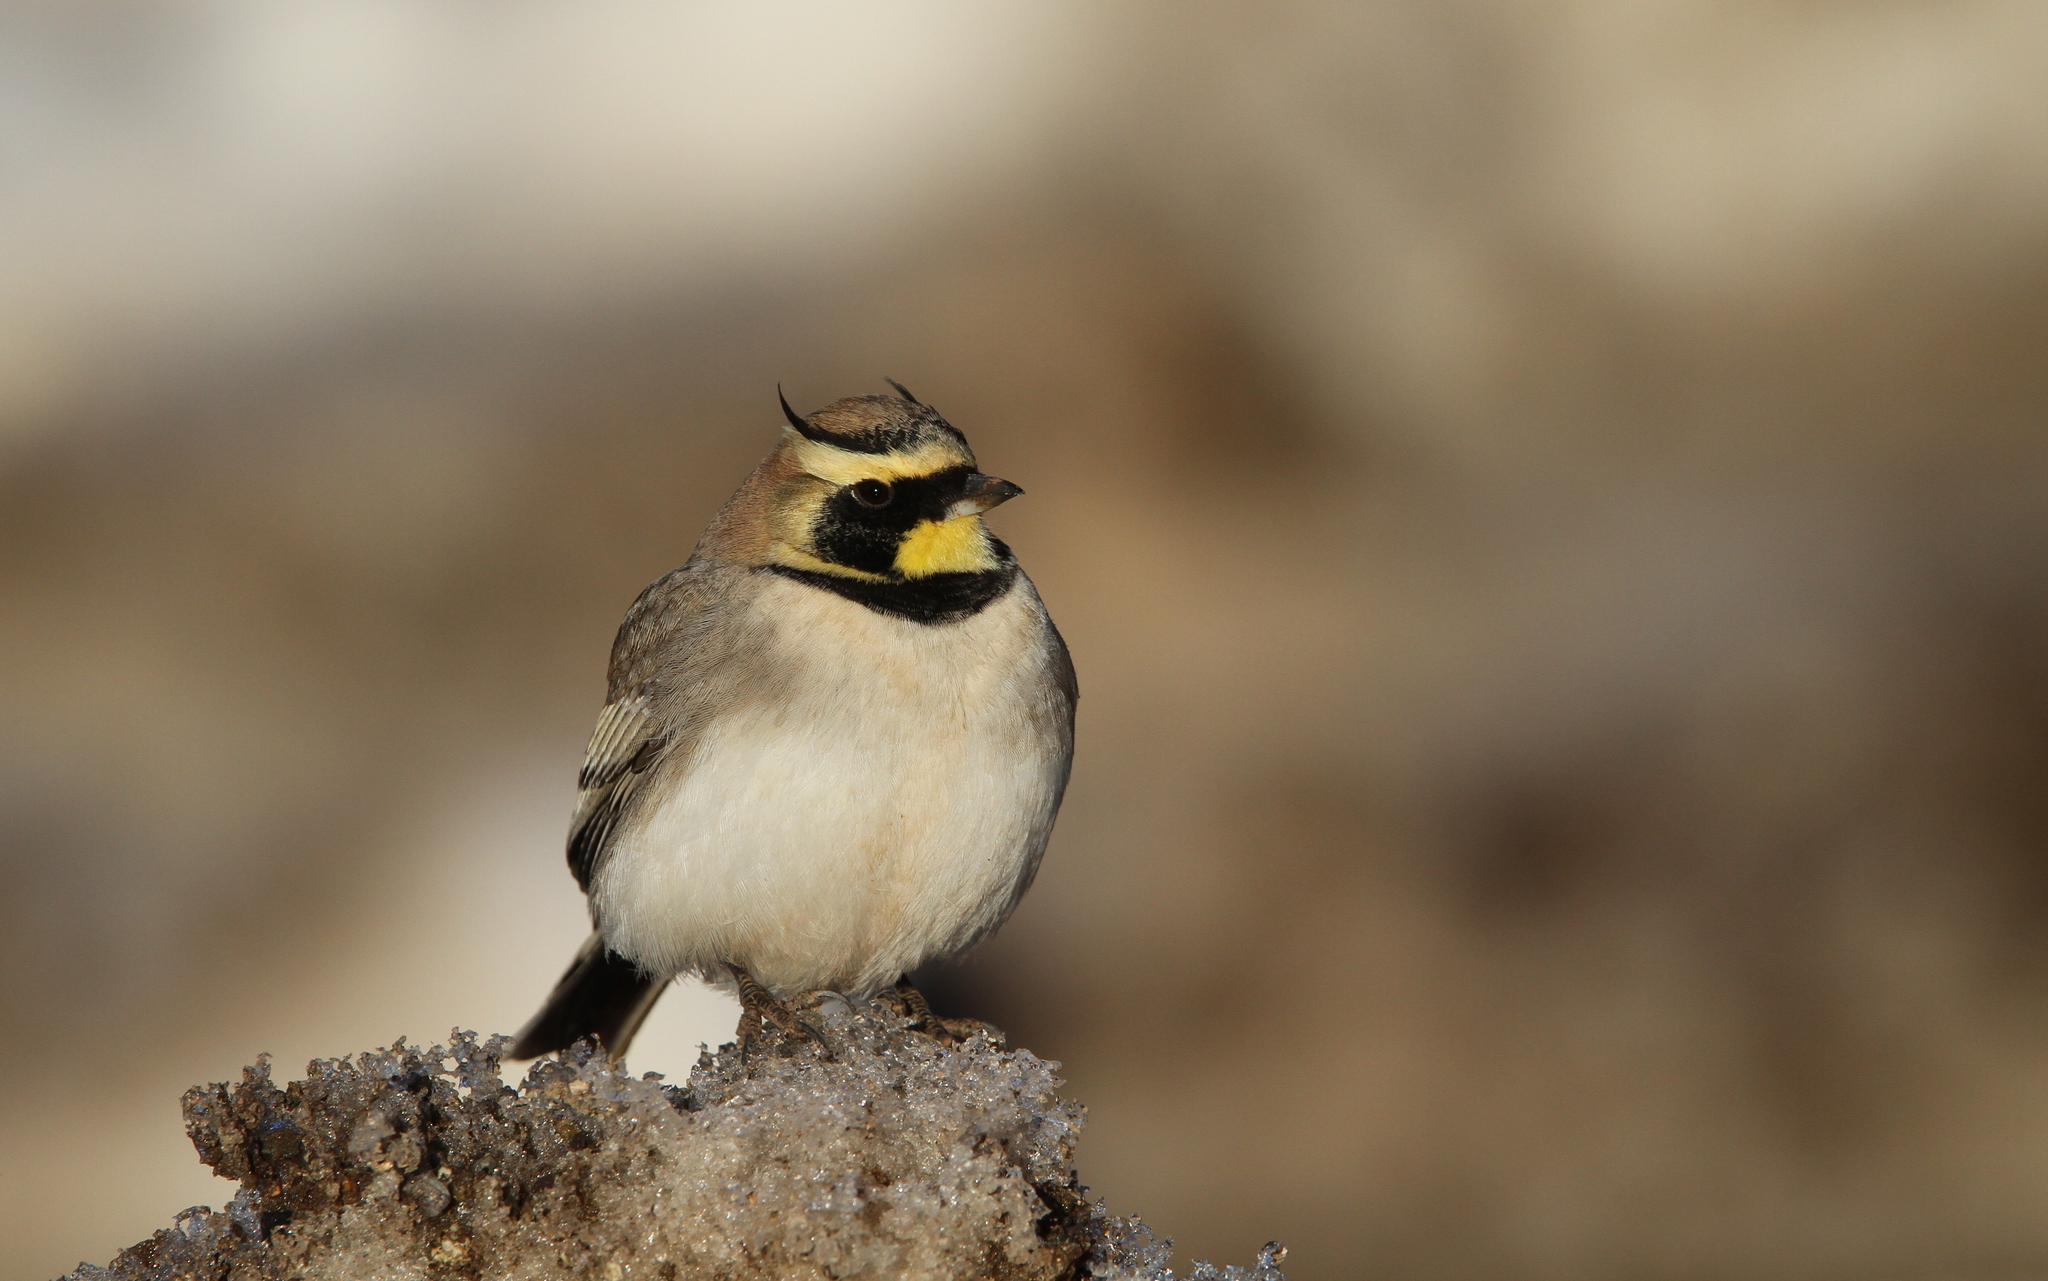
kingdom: Animalia
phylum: Chordata
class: Aves
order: Passeriformes
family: Alaudidae
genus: Eremophila
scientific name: Eremophila alpestris
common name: Horned lark
